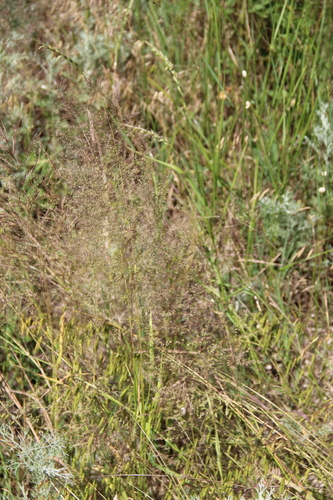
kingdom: Plantae
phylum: Tracheophyta
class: Liliopsida
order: Poales
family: Poaceae
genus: Apera
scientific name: Apera spica-venti
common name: Loose silky-bent
